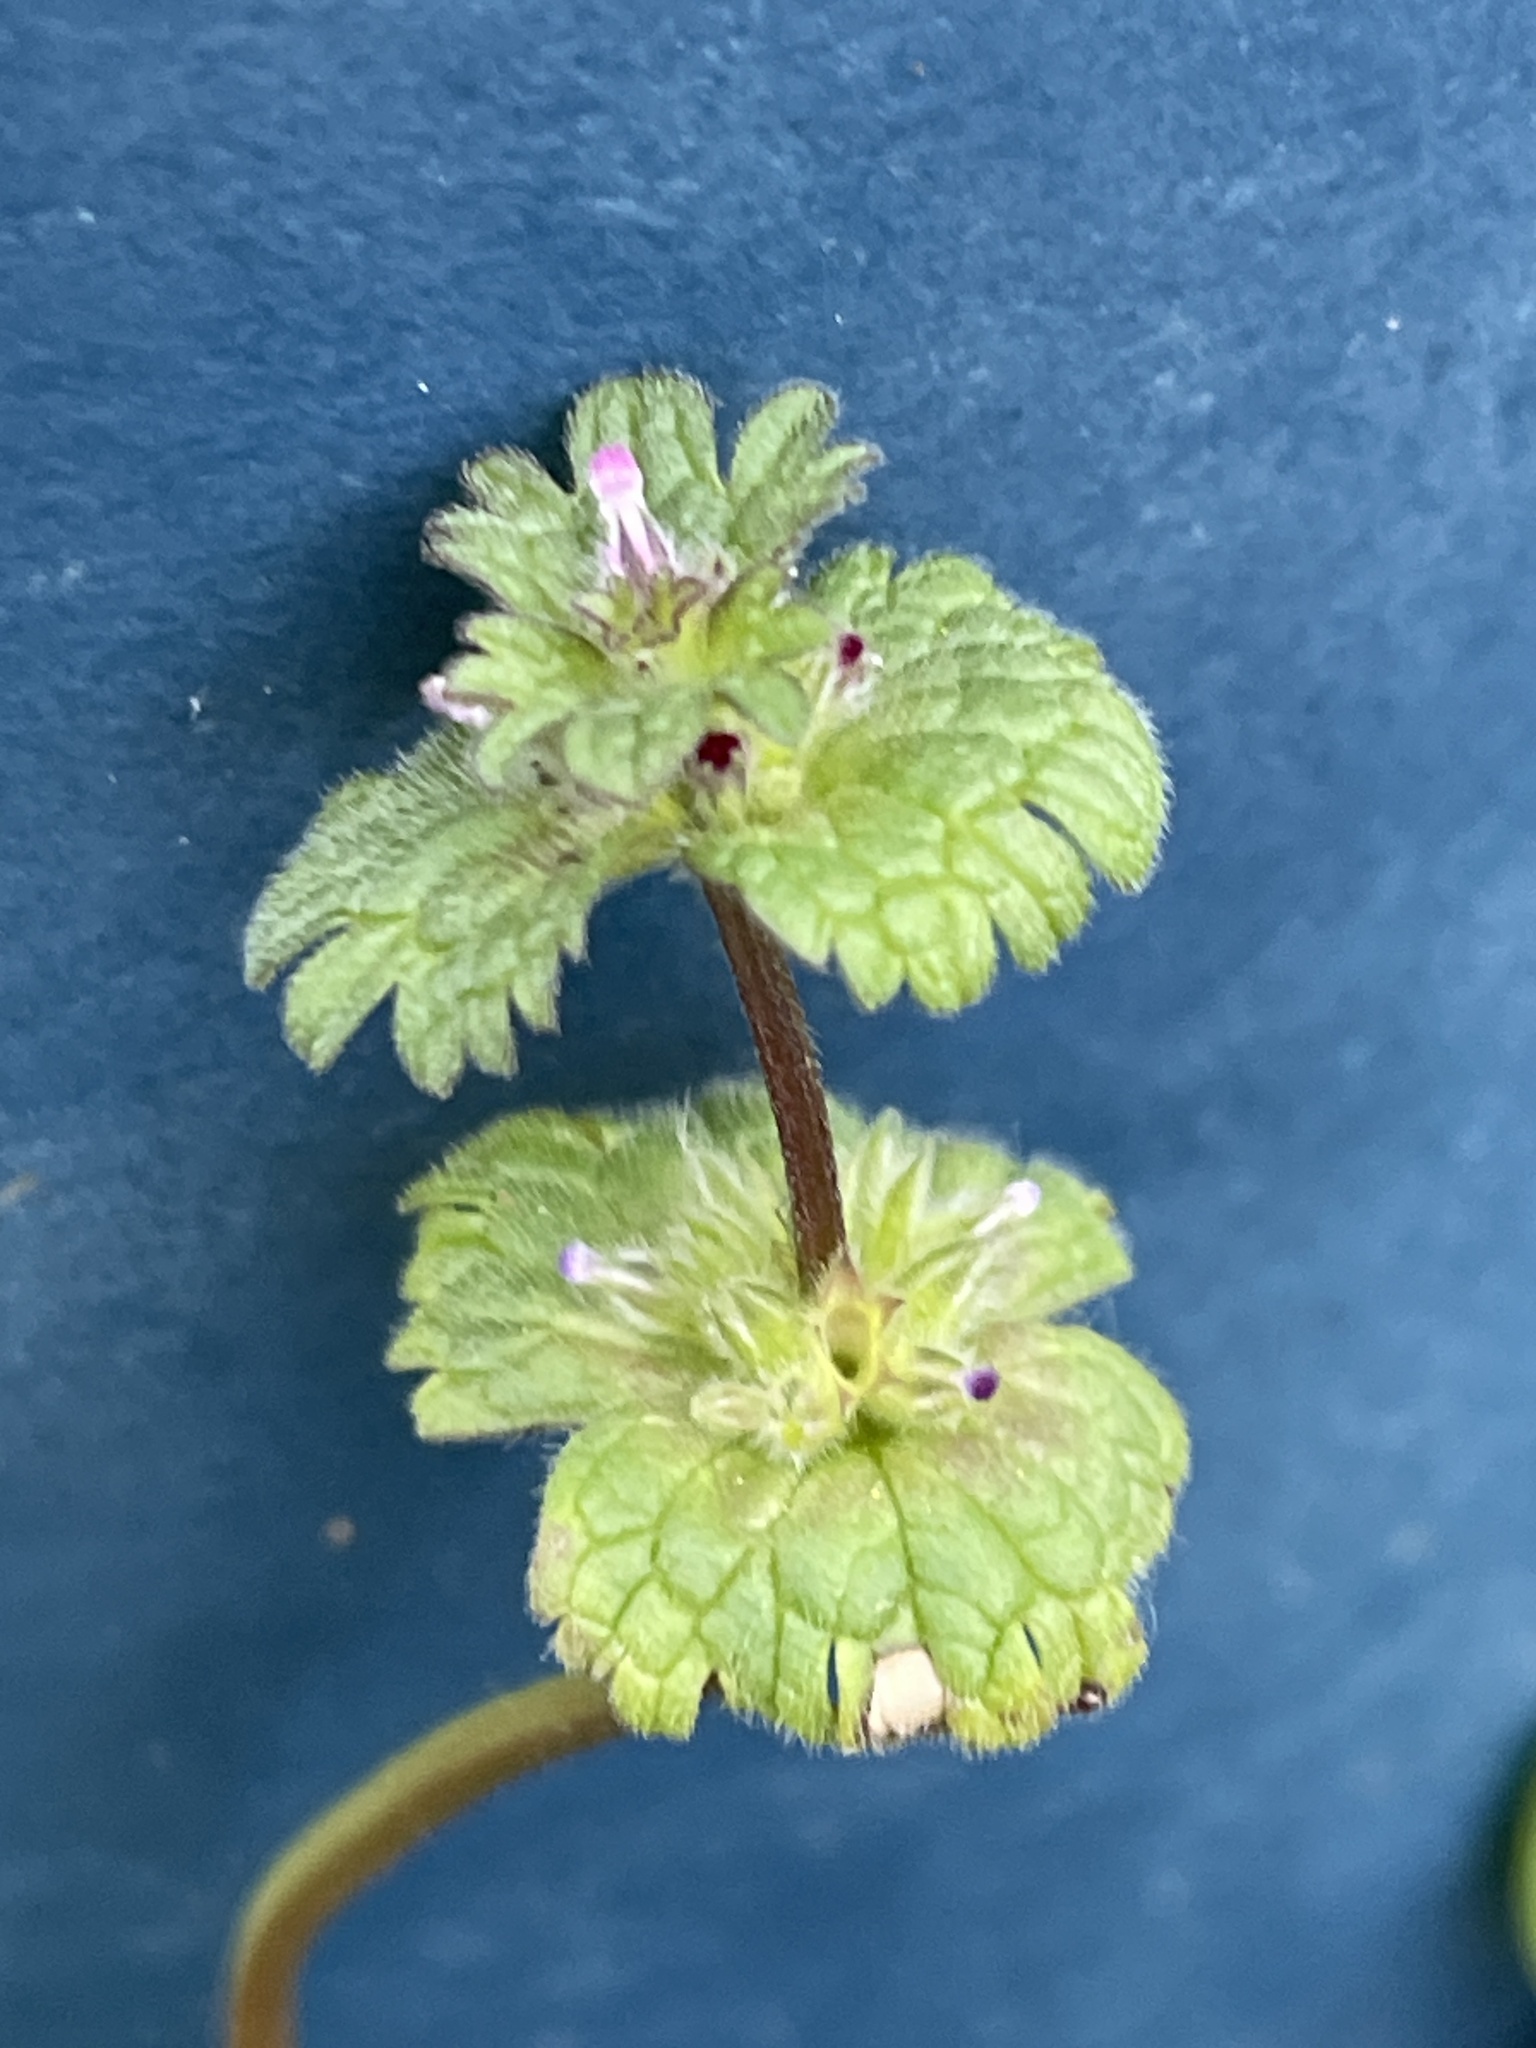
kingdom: Plantae
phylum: Tracheophyta
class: Magnoliopsida
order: Lamiales
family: Lamiaceae
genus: Lamium
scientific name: Lamium amplexicaule
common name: Henbit dead-nettle
